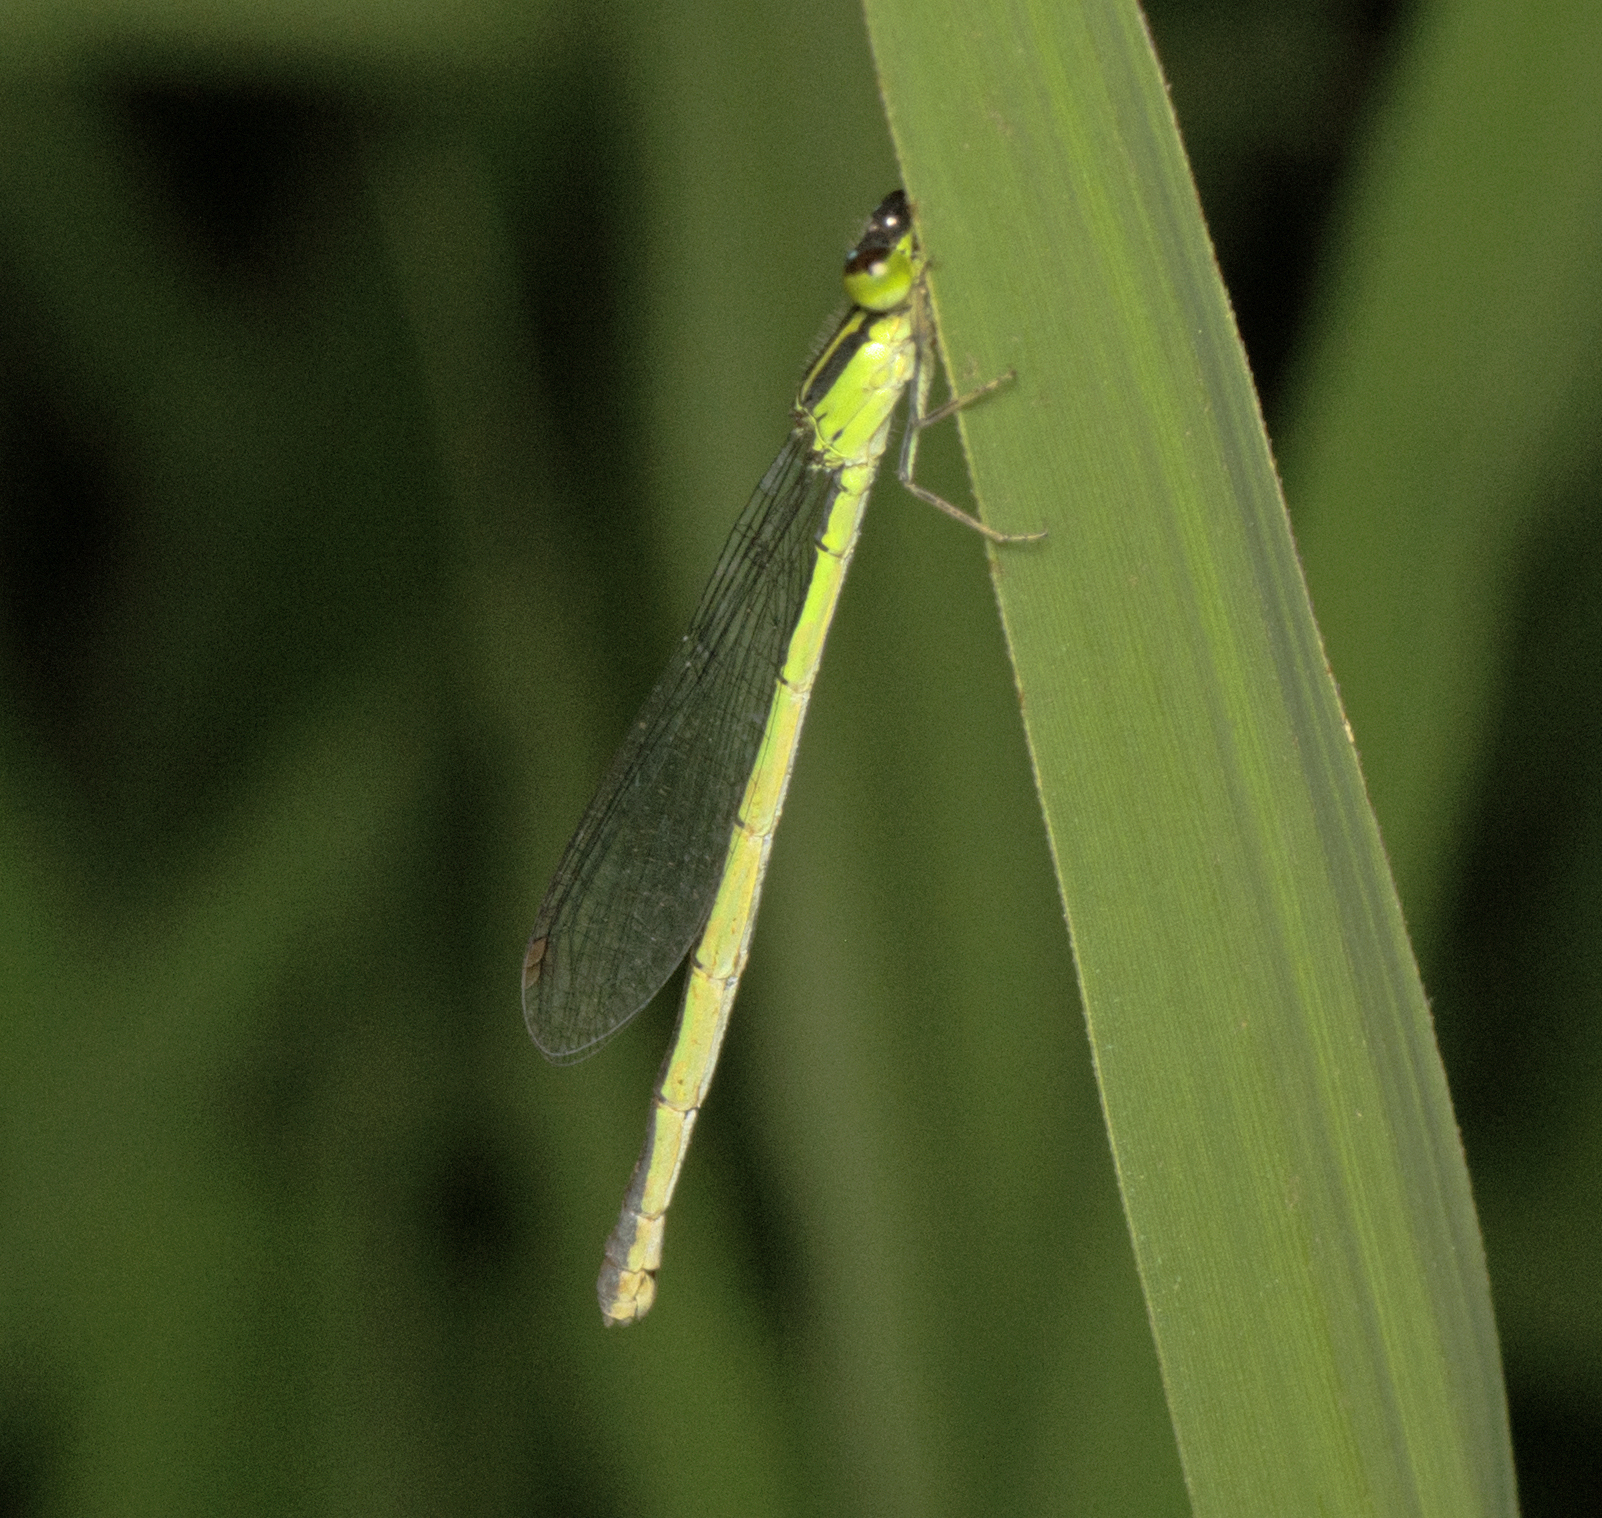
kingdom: Animalia
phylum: Arthropoda
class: Insecta
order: Odonata
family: Coenagrionidae
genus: Ischnura
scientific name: Ischnura aurora
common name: Gossamer damselfly
